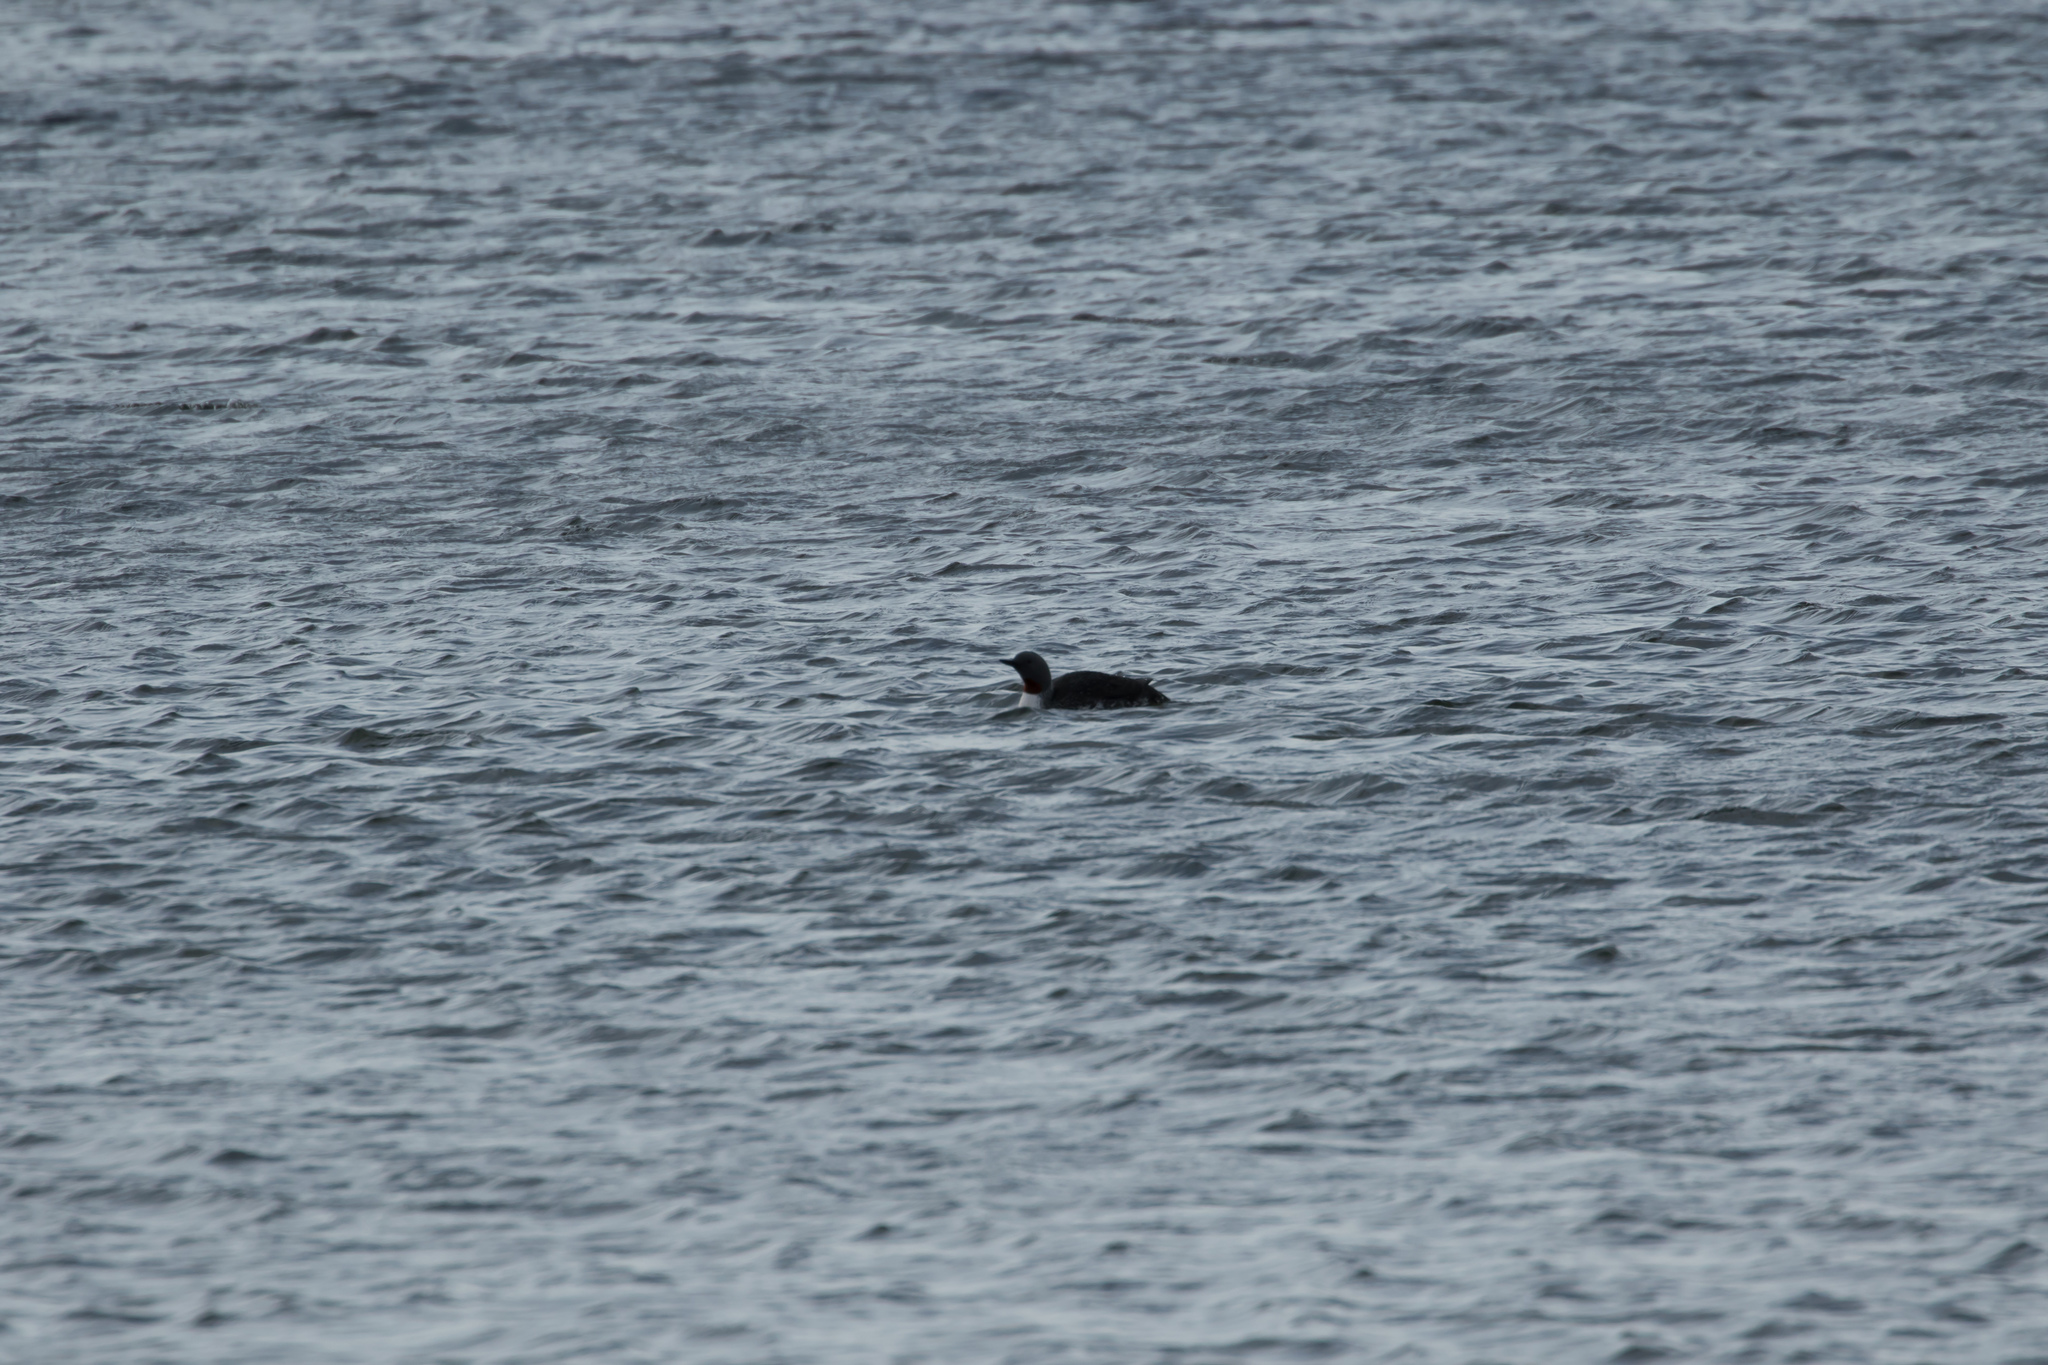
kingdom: Animalia
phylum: Chordata
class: Aves
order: Gaviiformes
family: Gaviidae
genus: Gavia
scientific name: Gavia stellata
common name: Red-throated loon
